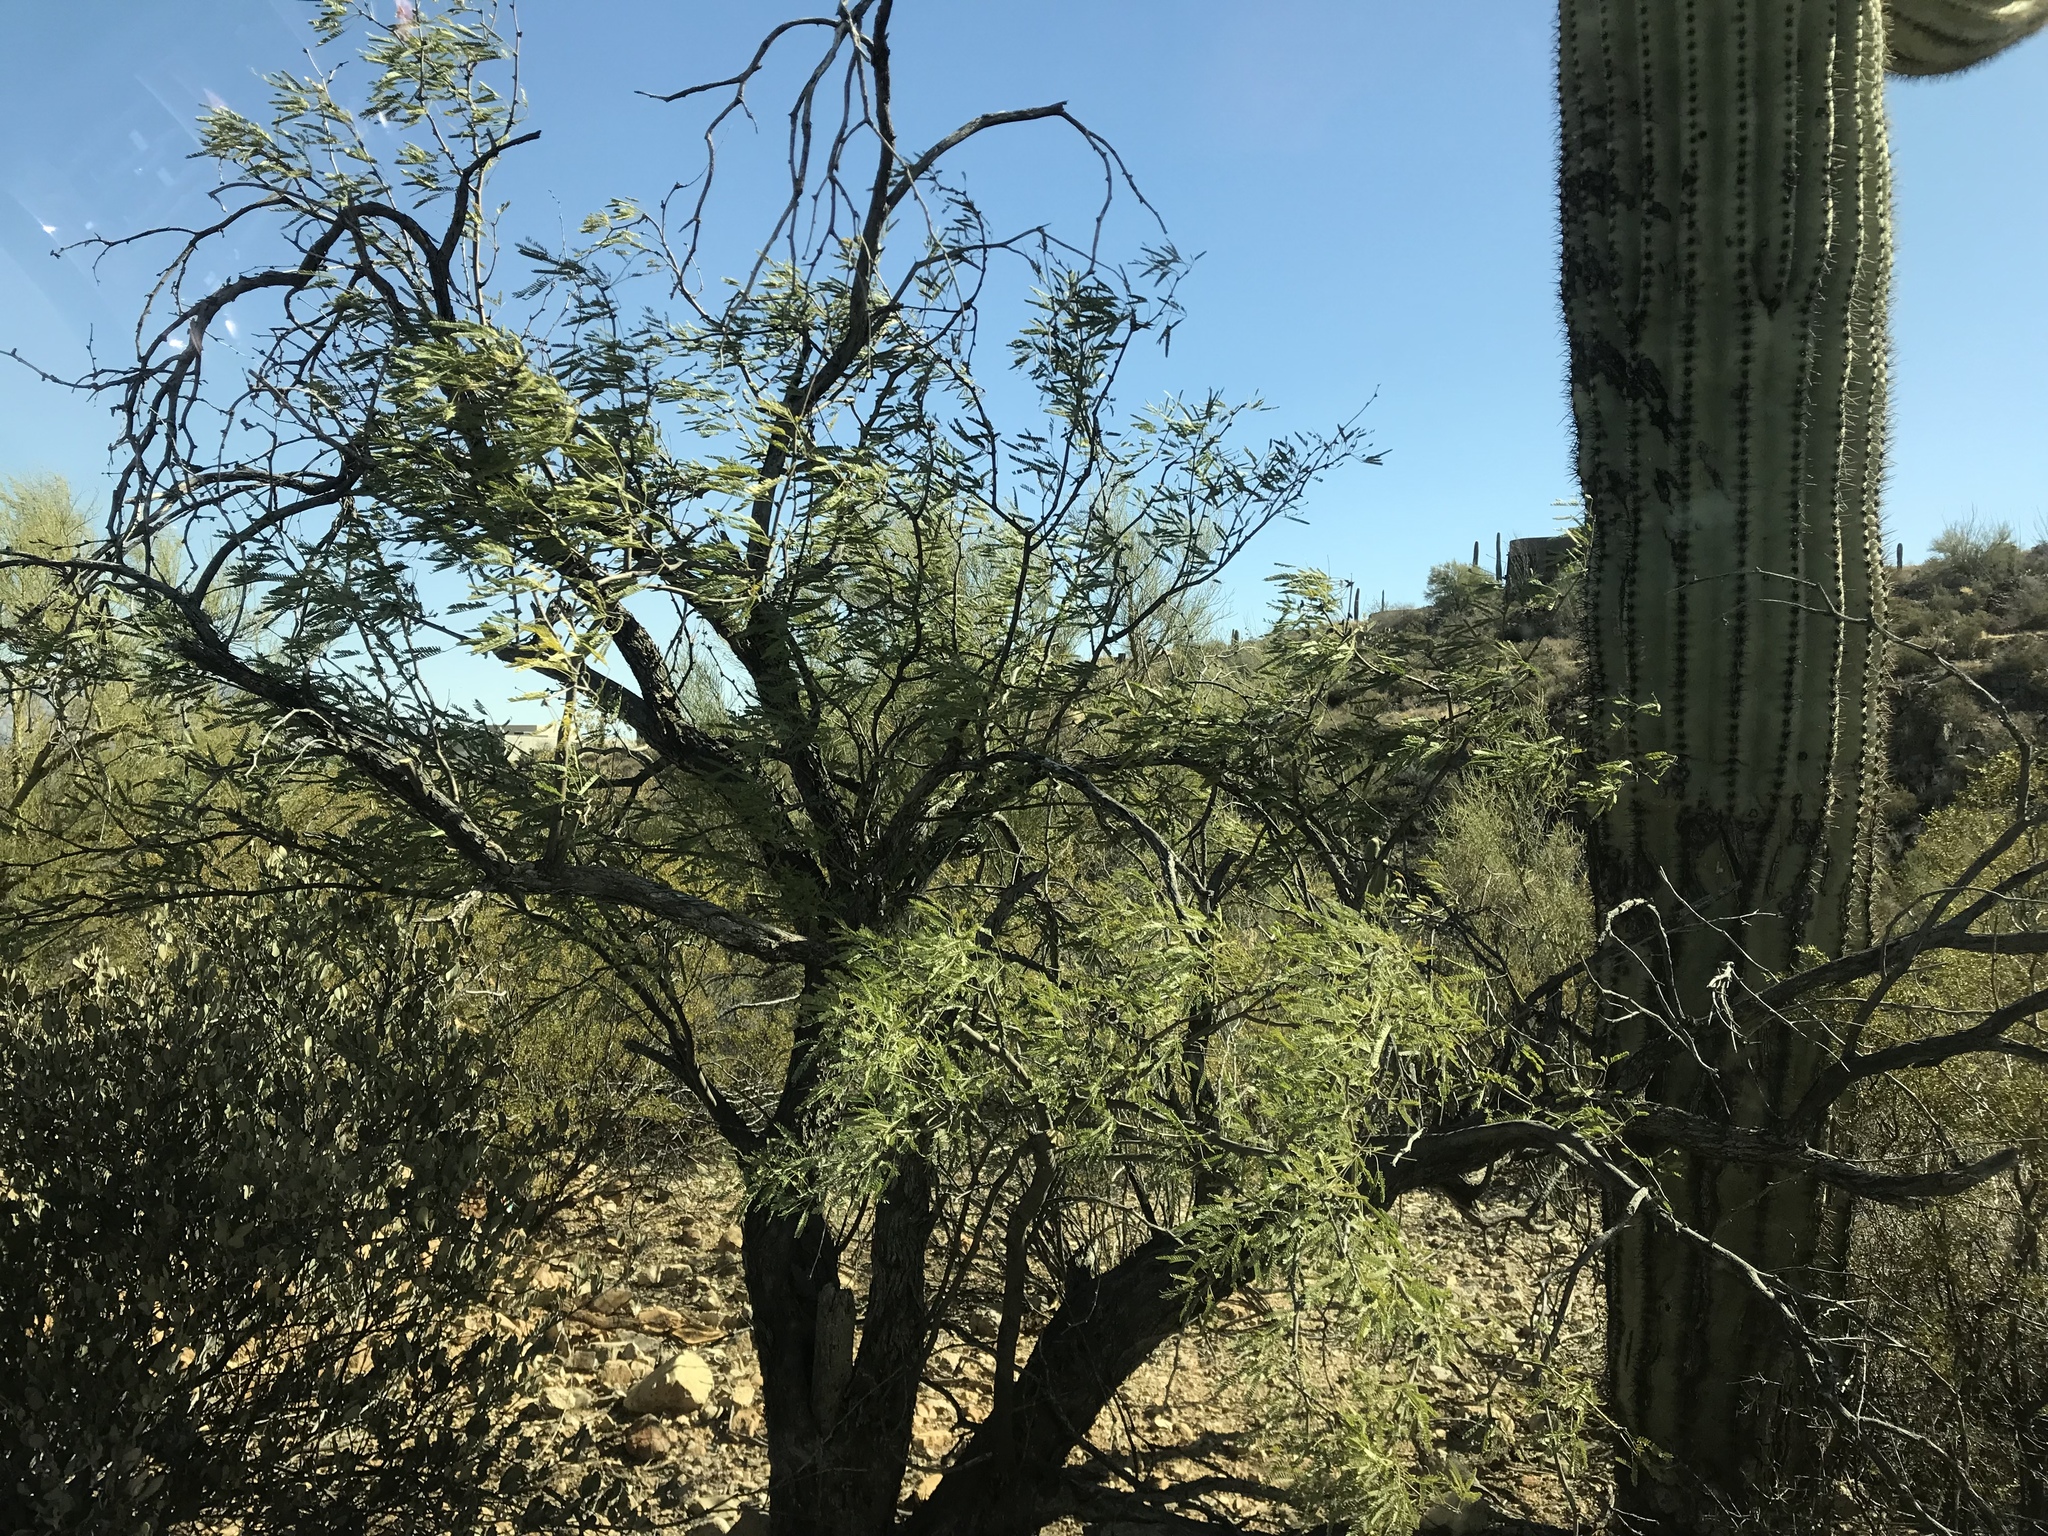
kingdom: Plantae
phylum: Tracheophyta
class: Magnoliopsida
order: Fabales
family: Fabaceae
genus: Prosopis
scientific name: Prosopis velutina
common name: Velvet mesquite
